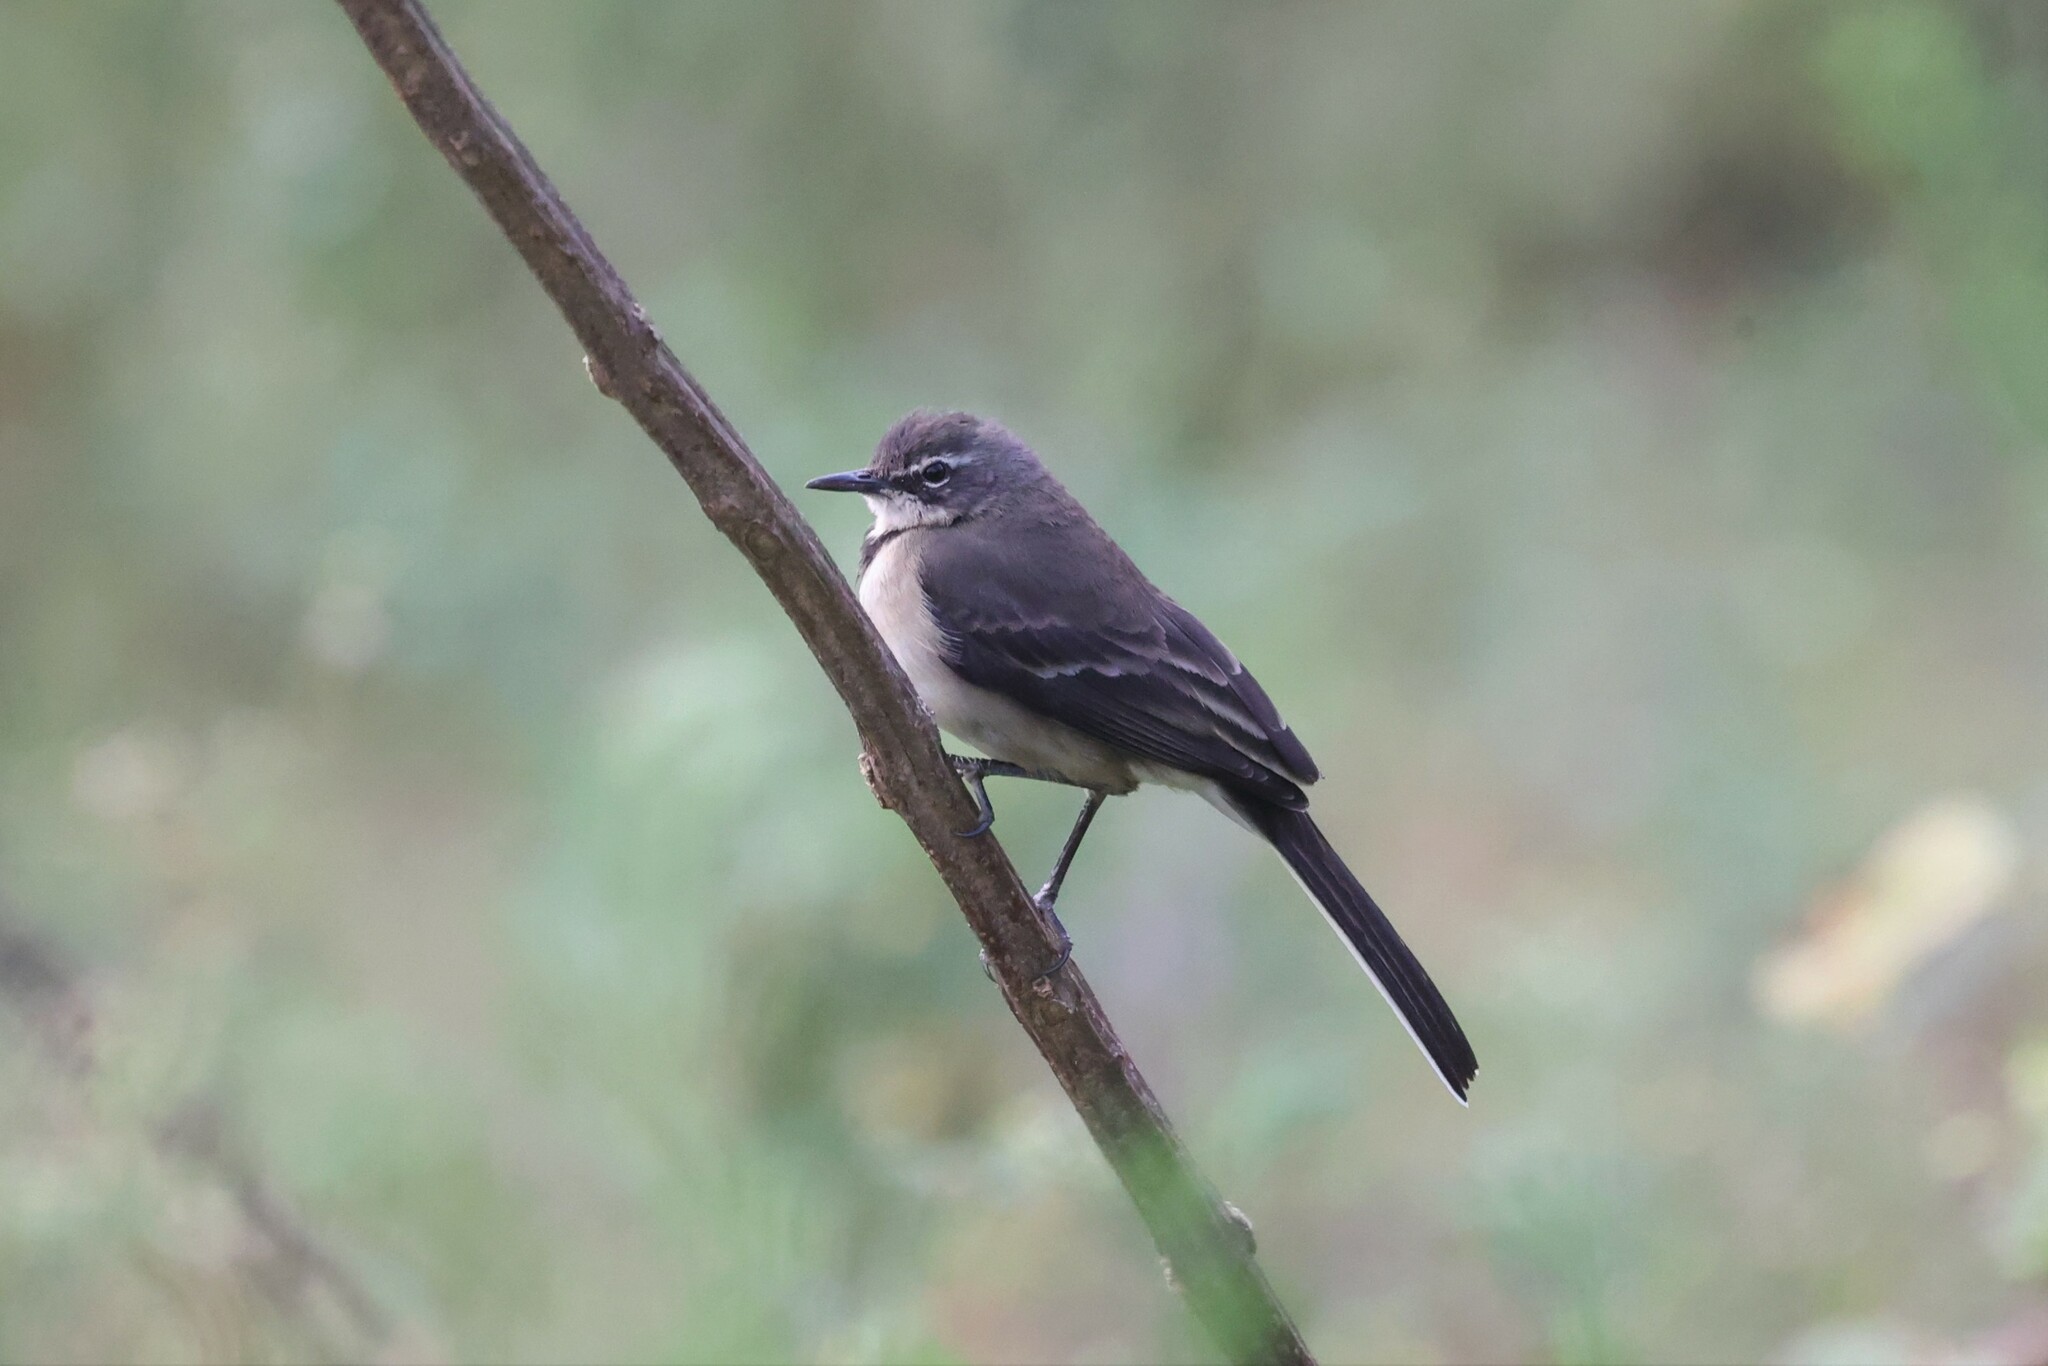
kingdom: Animalia
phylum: Chordata
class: Aves
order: Passeriformes
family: Motacillidae
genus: Motacilla
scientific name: Motacilla capensis
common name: Cape wagtail
